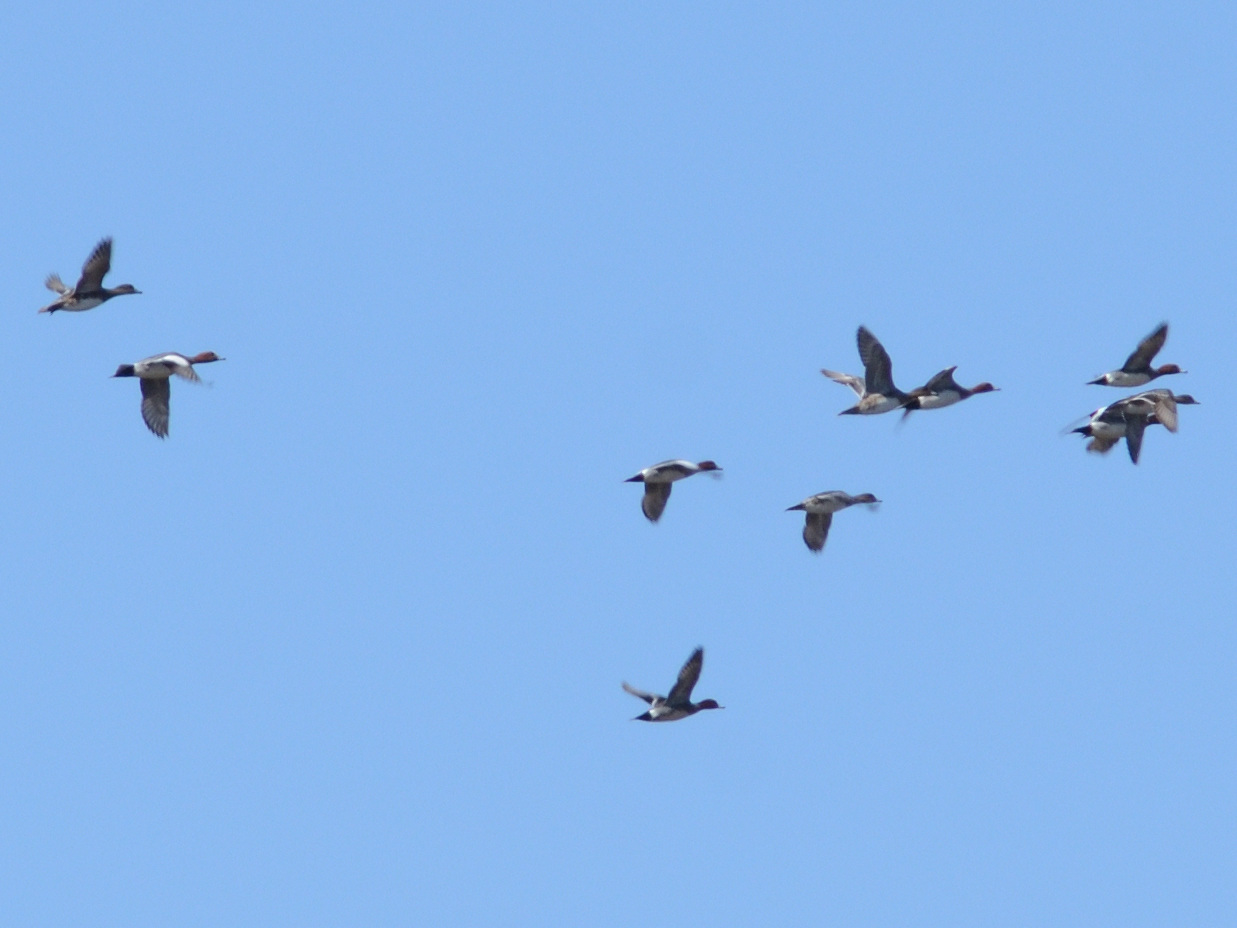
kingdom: Animalia
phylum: Chordata
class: Aves
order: Anseriformes
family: Anatidae
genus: Mareca
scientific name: Mareca penelope
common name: Eurasian wigeon
